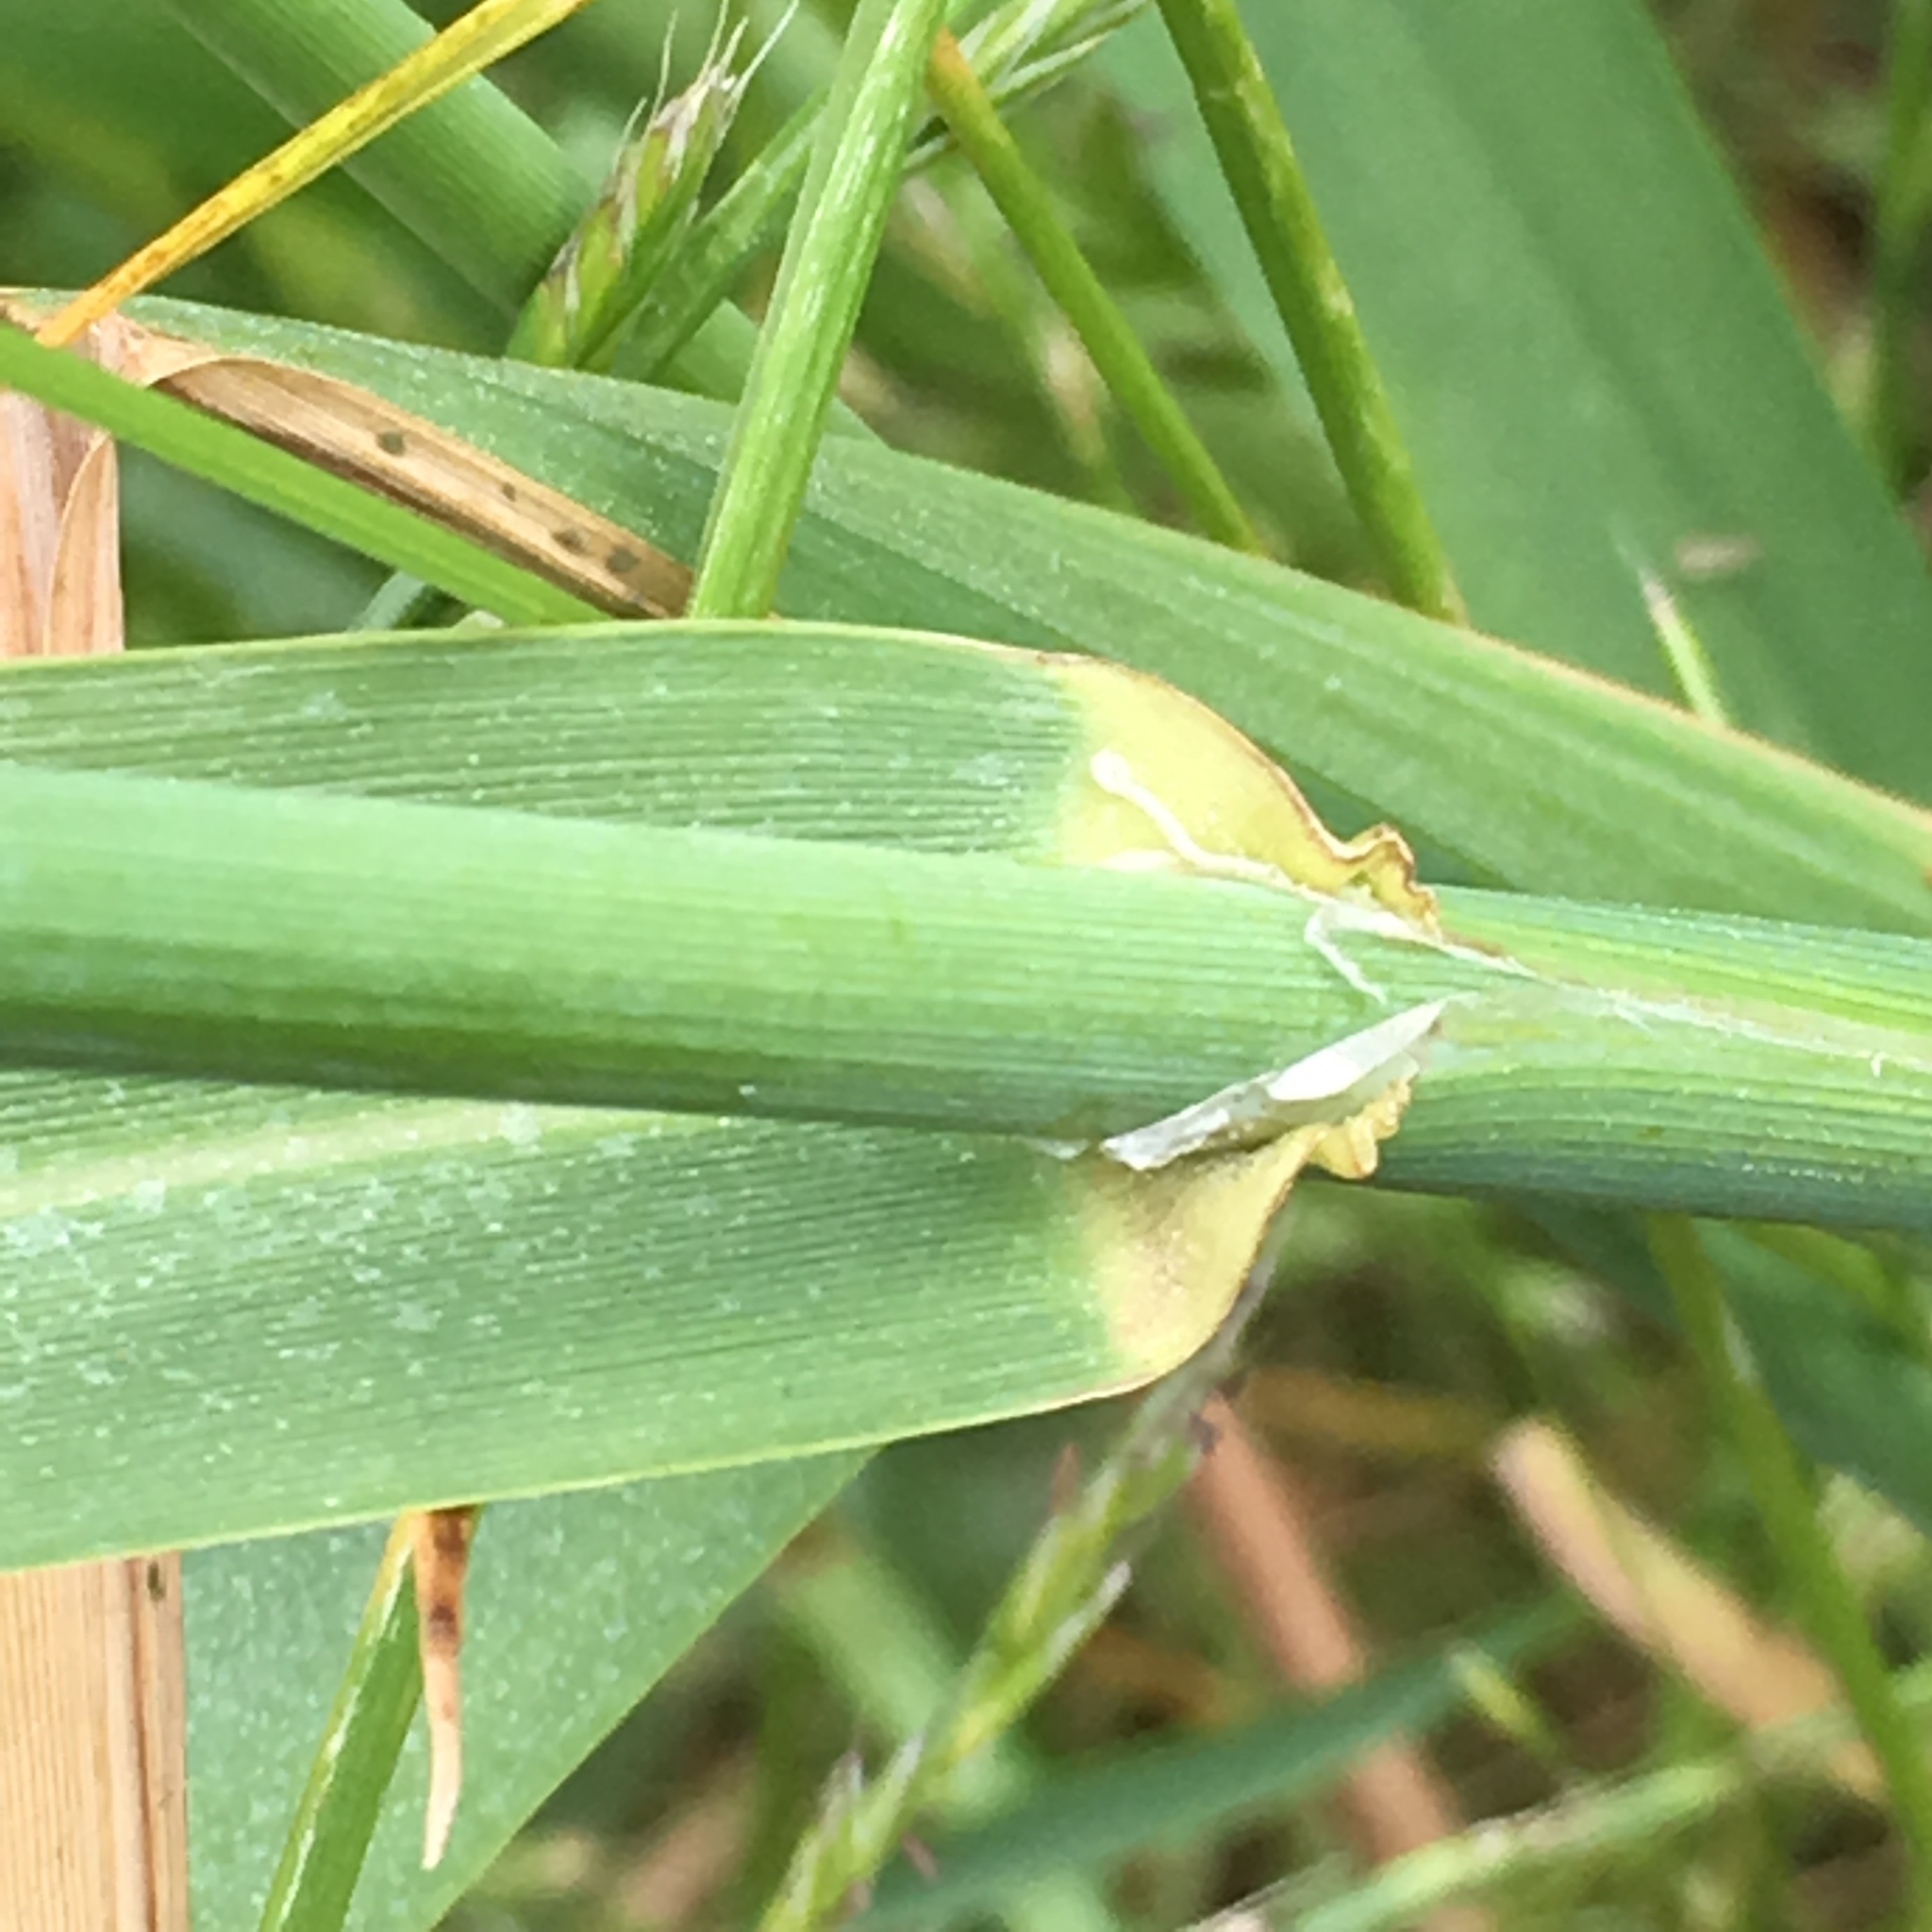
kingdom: Plantae
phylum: Tracheophyta
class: Liliopsida
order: Poales
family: Poaceae
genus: Phalaris
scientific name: Phalaris arundinacea
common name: Reed canary-grass
